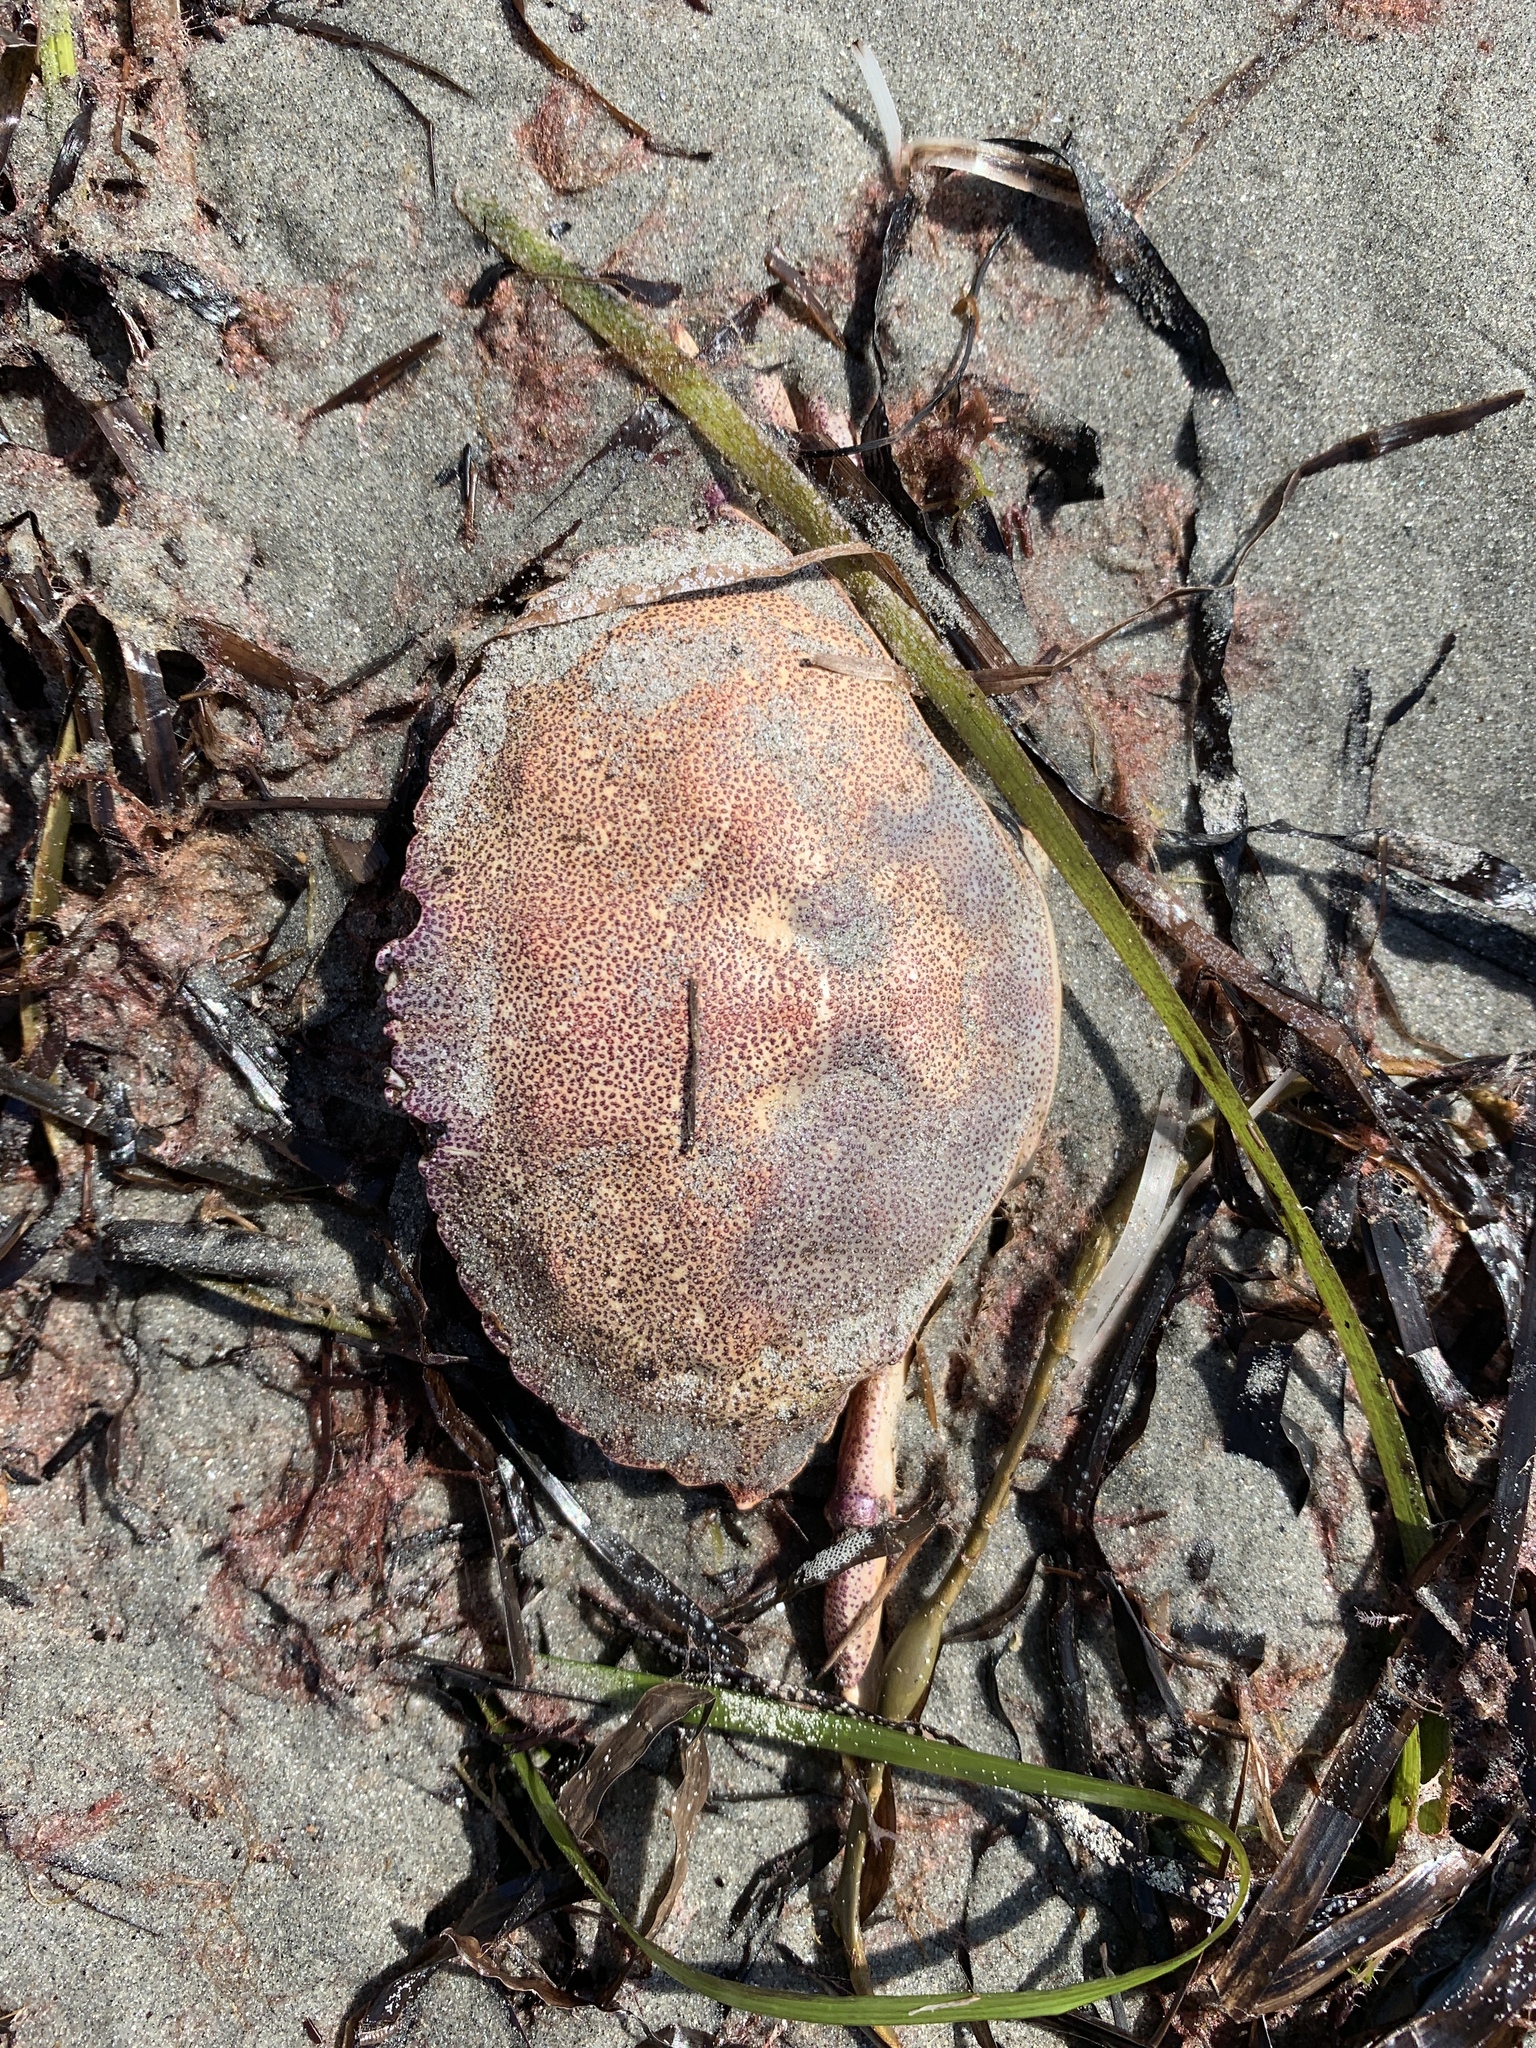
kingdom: Animalia
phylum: Arthropoda
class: Malacostraca
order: Decapoda
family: Cancridae
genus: Cancer
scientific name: Cancer irroratus
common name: Atlantic rock crab
